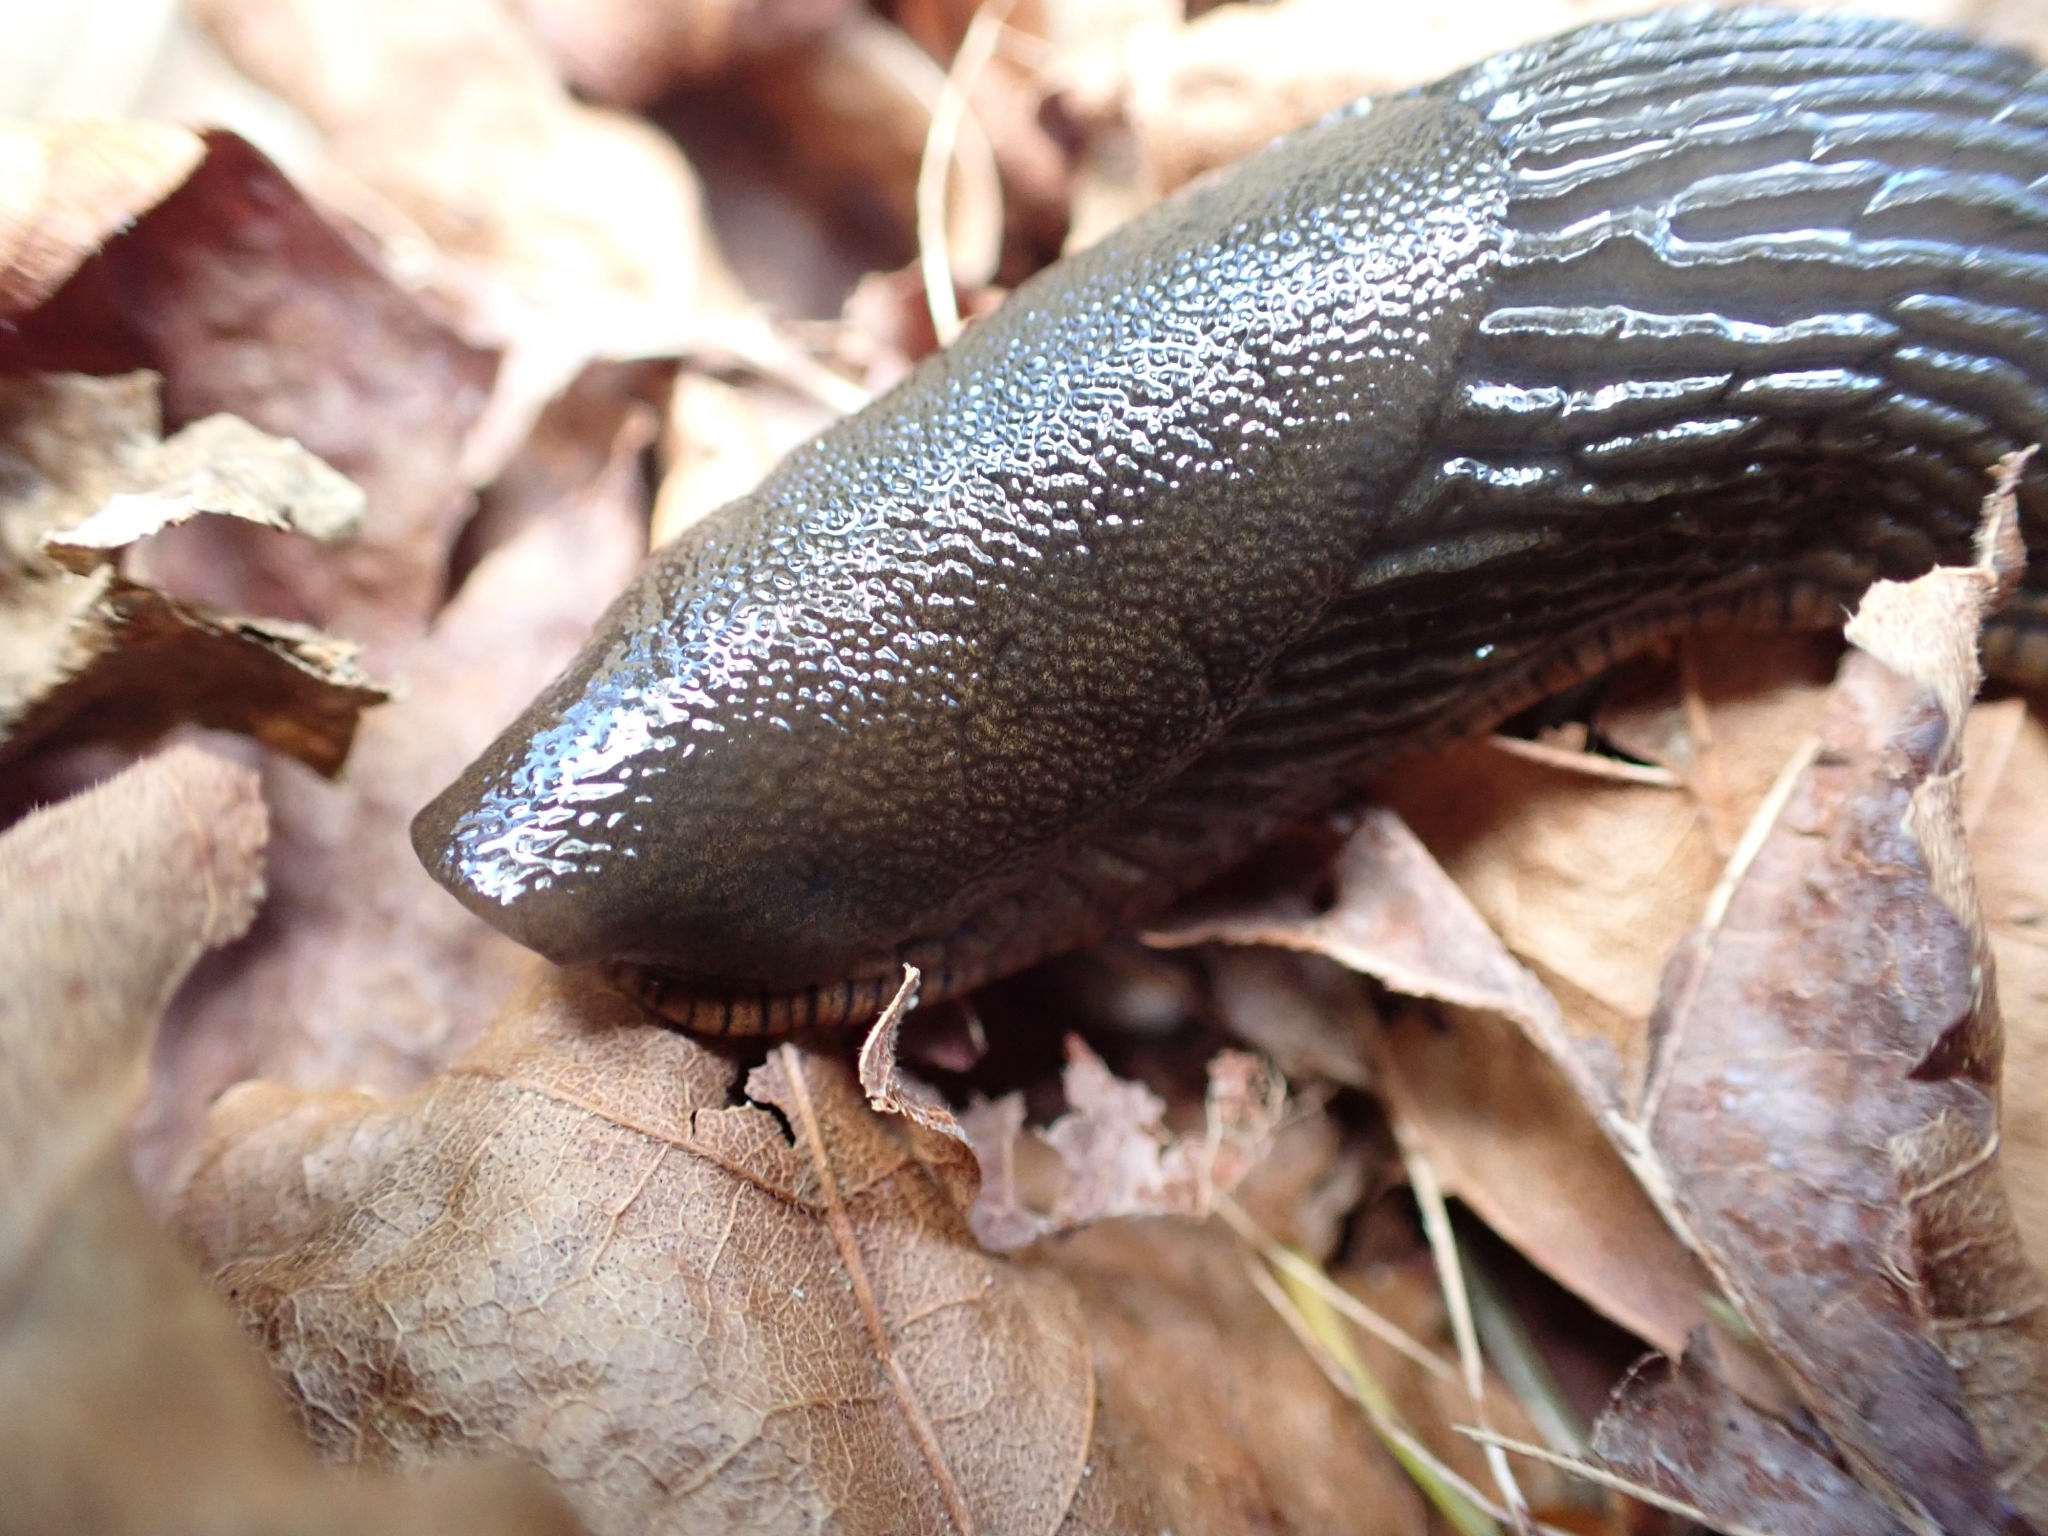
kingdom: Animalia
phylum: Mollusca
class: Gastropoda
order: Stylommatophora
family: Arionidae
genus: Arion
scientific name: Arion
